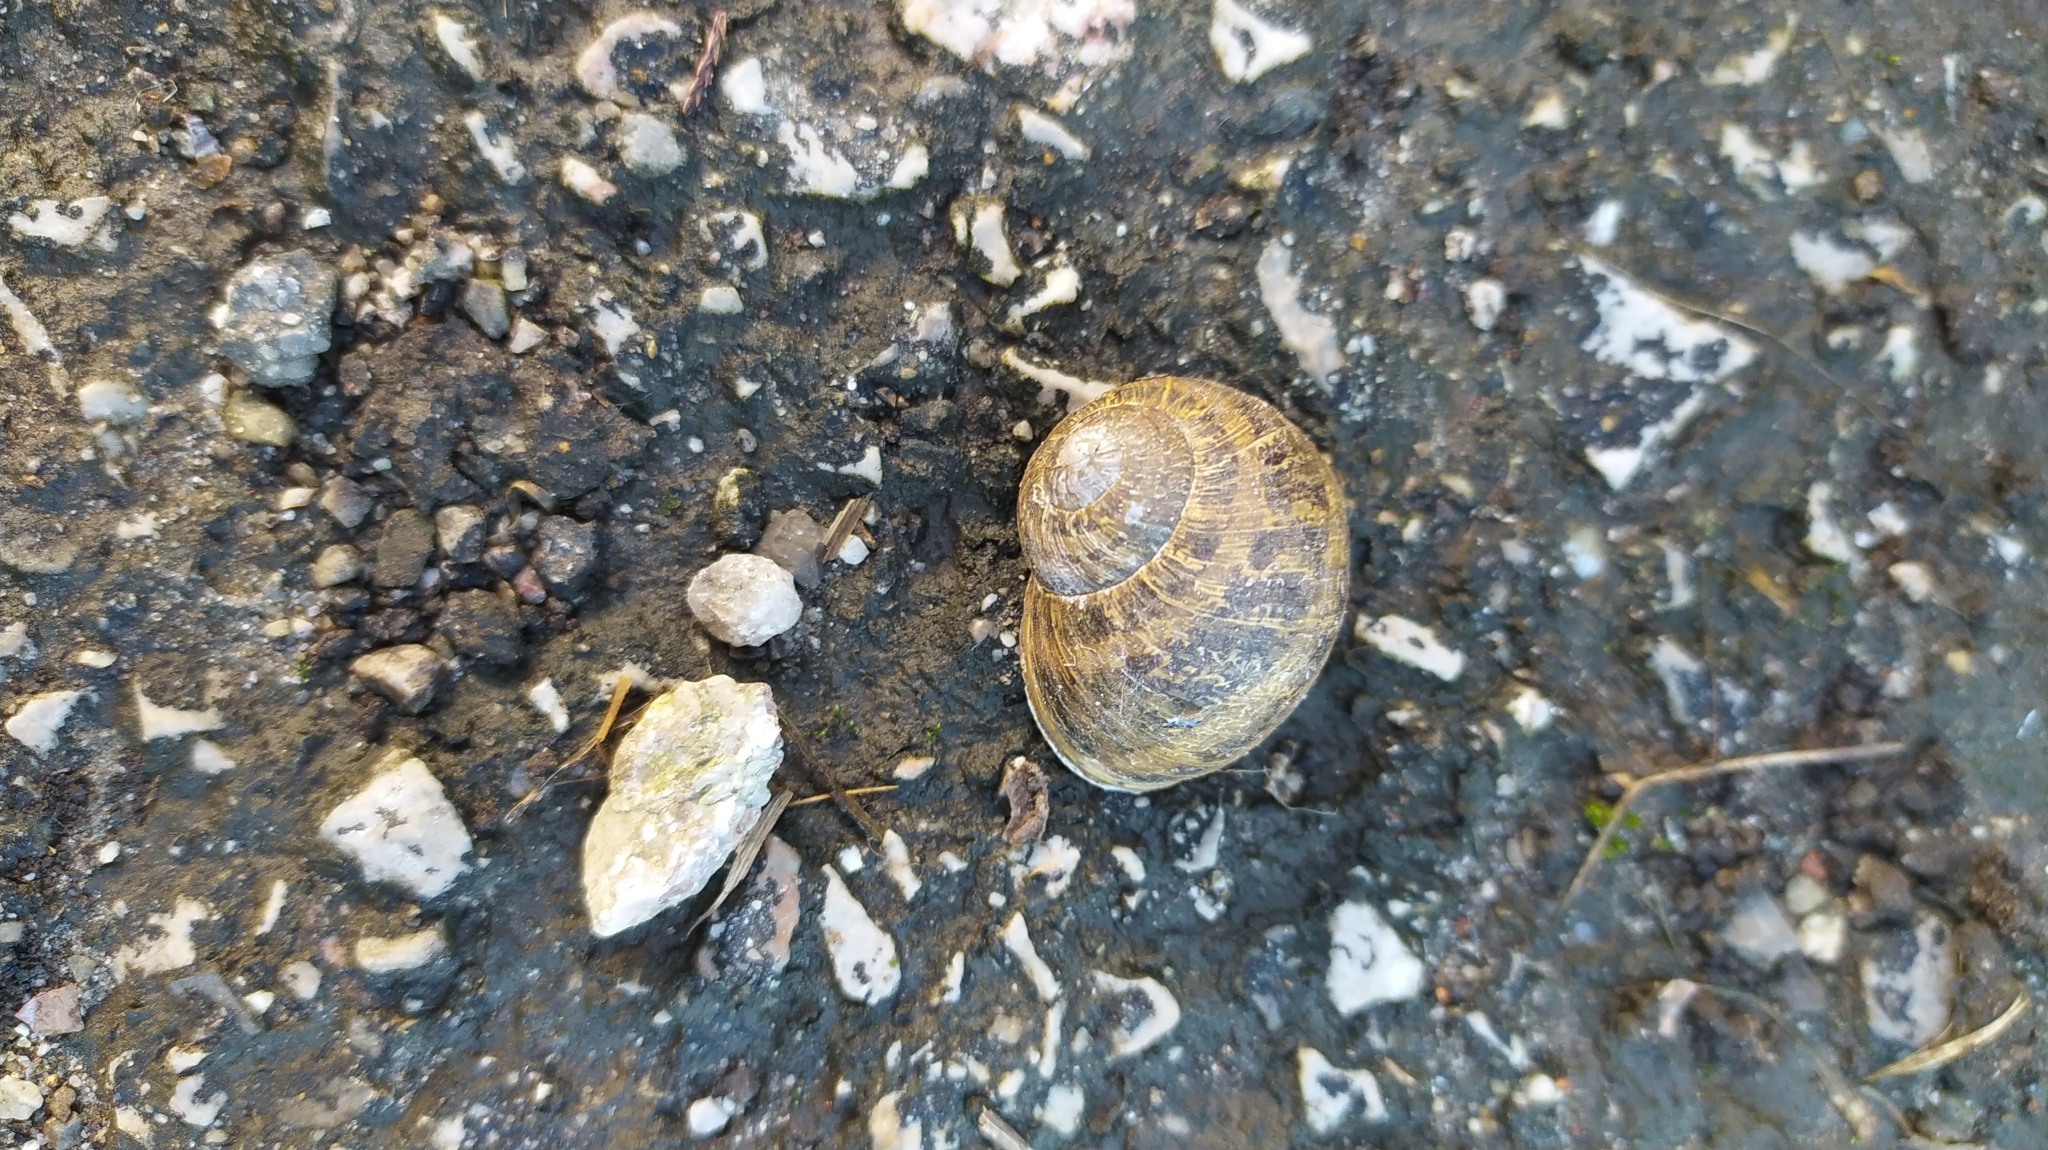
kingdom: Animalia
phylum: Mollusca
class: Gastropoda
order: Stylommatophora
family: Helicidae
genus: Cornu
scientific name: Cornu aspersum
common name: Brown garden snail
